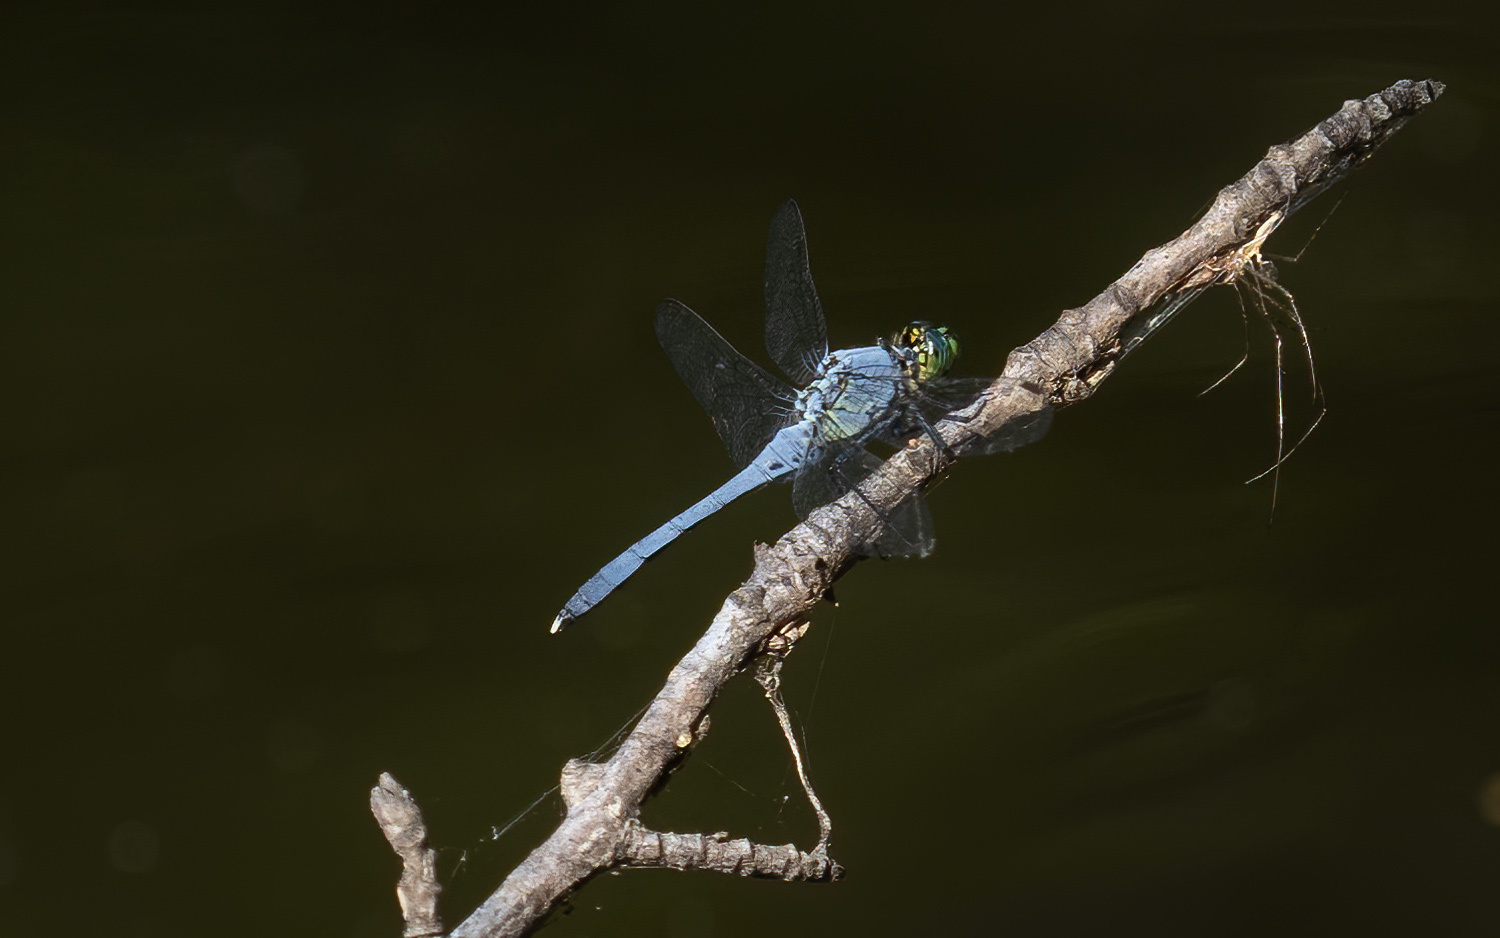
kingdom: Animalia
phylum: Arthropoda
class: Insecta
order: Odonata
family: Libellulidae
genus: Erythemis
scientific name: Erythemis simplicicollis
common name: Eastern pondhawk
